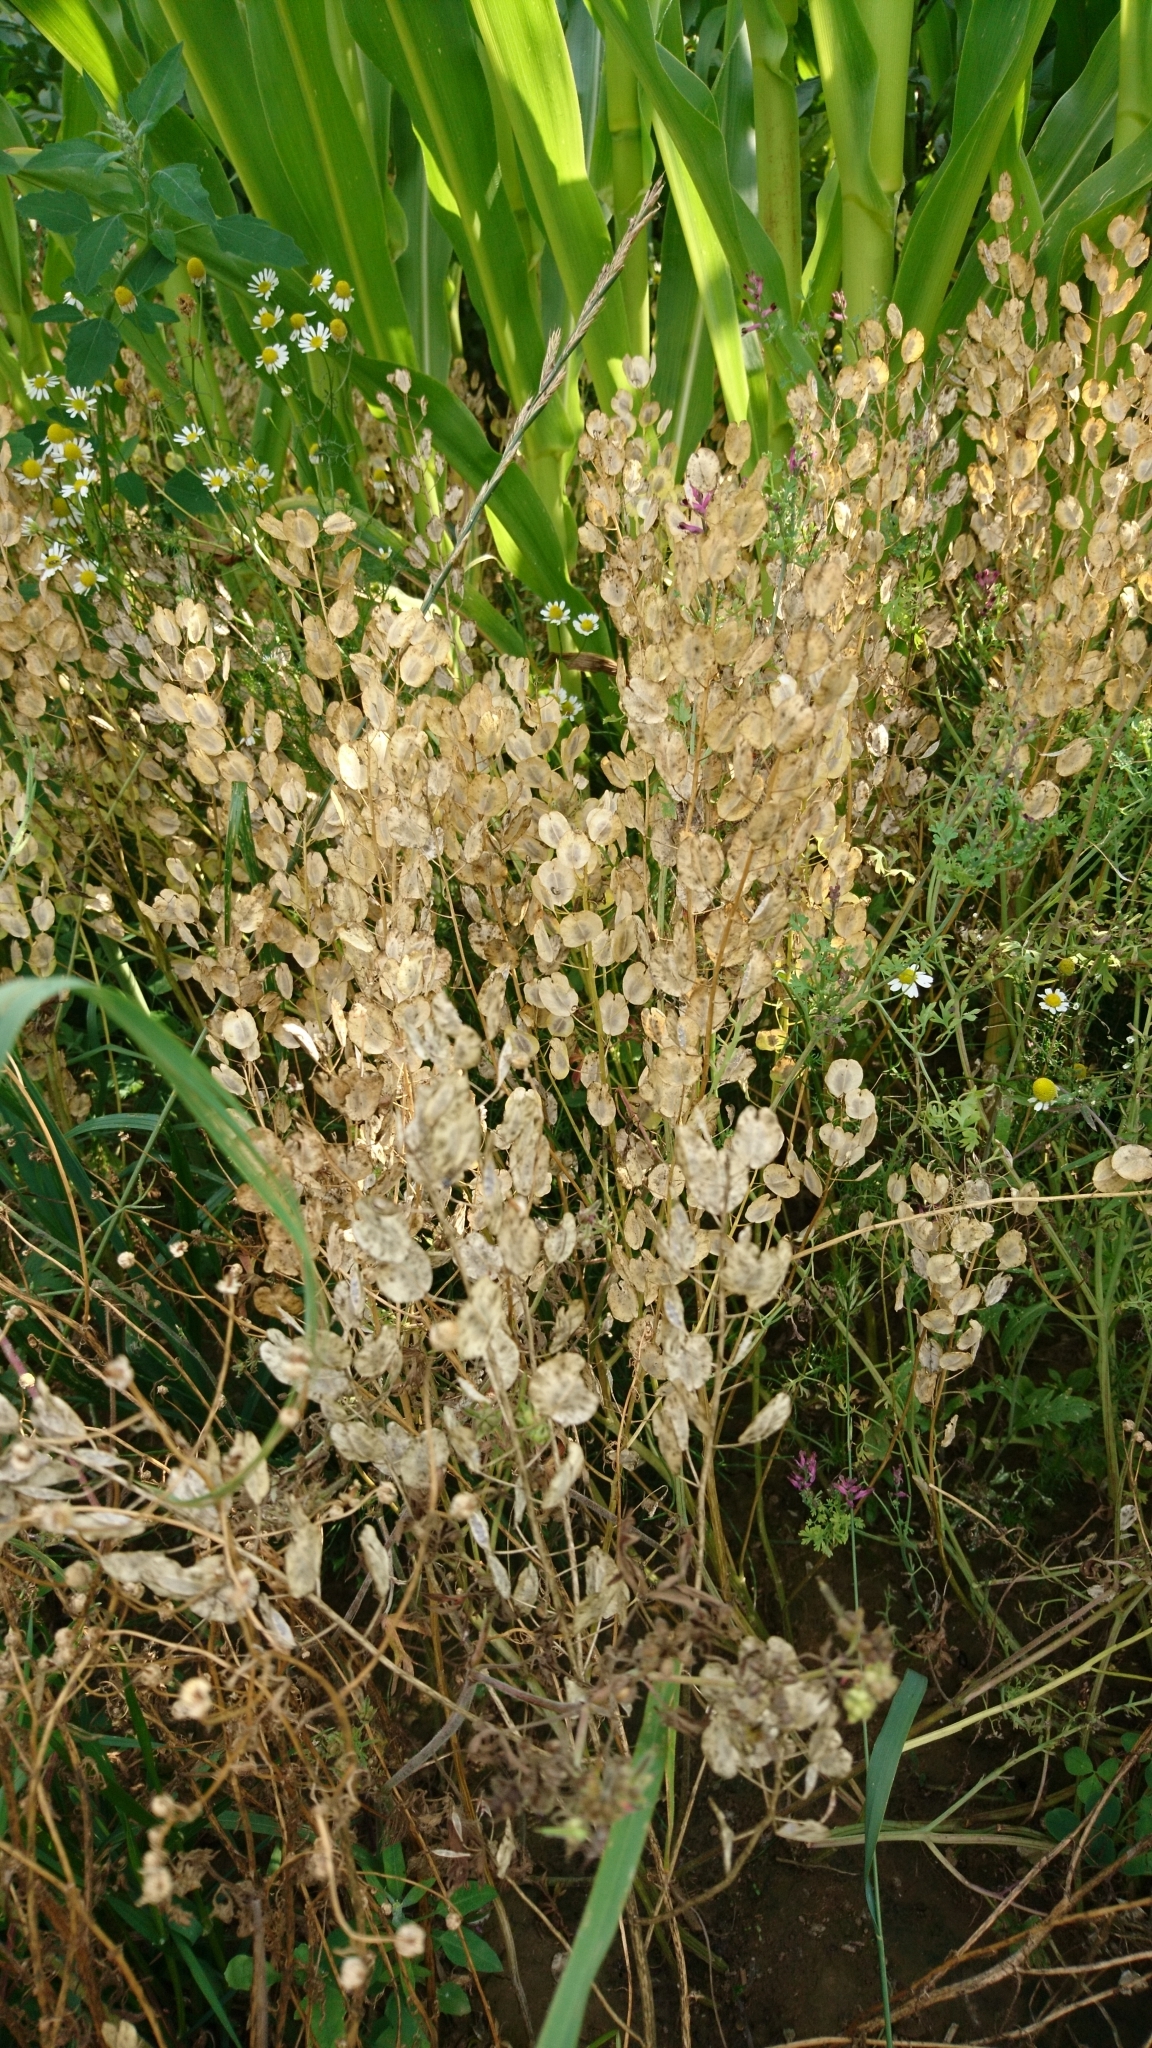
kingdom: Plantae
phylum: Tracheophyta
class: Magnoliopsida
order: Brassicales
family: Brassicaceae
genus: Thlaspi
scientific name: Thlaspi arvense
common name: Field pennycress
